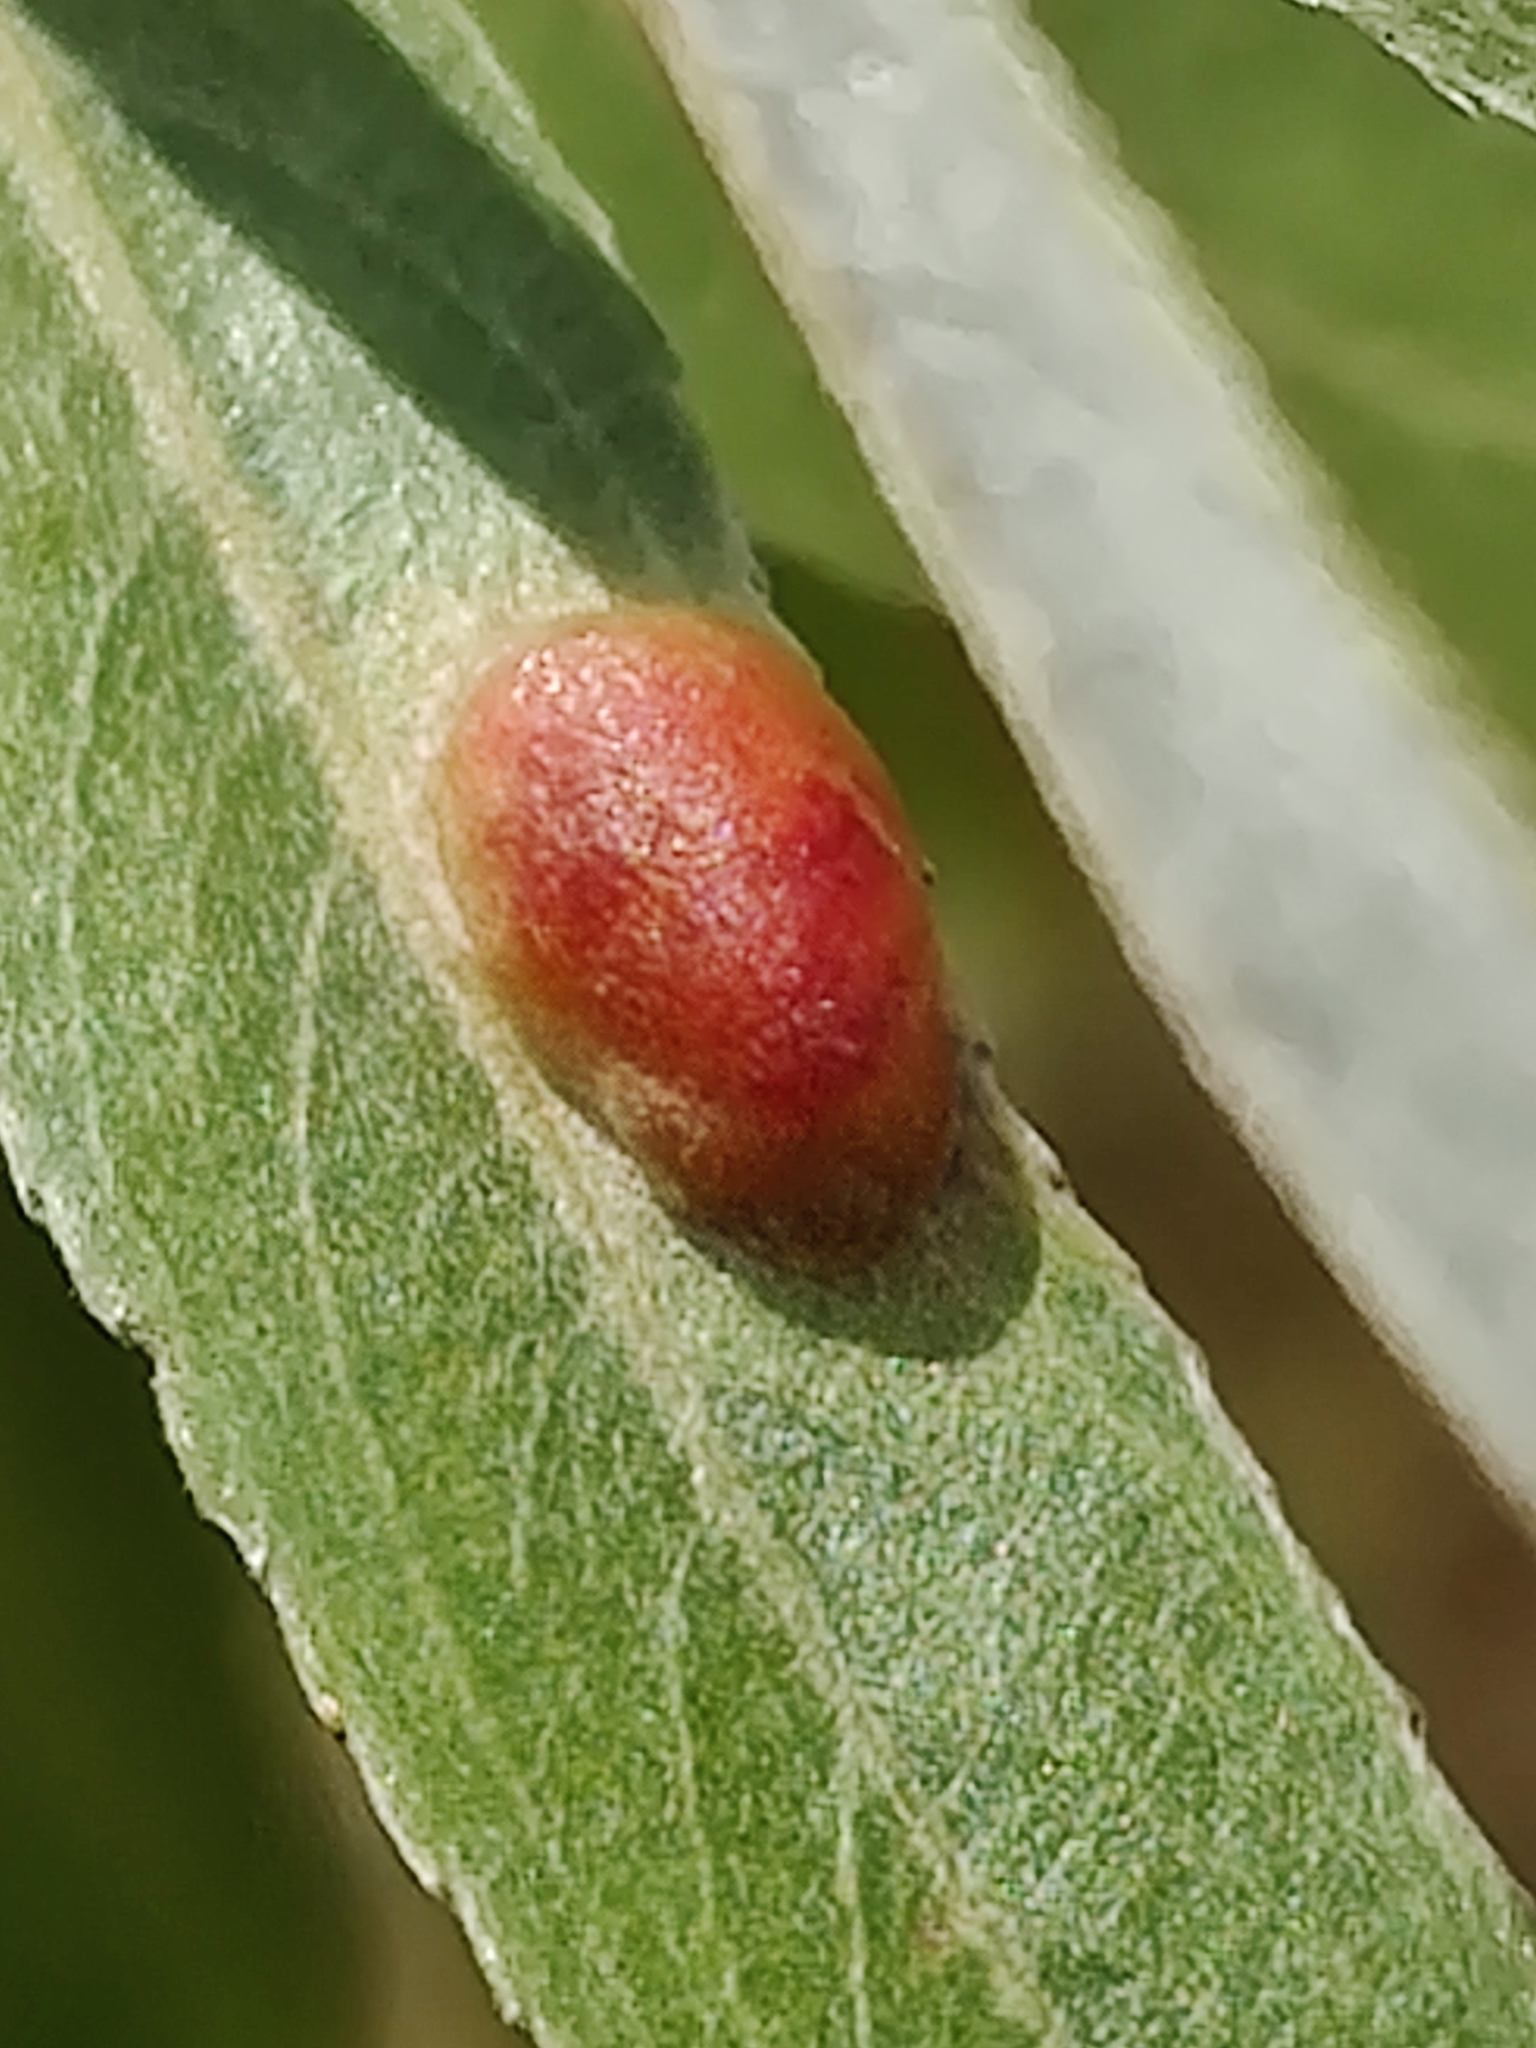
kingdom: Animalia
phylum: Arthropoda
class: Insecta
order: Hymenoptera
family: Tenthredinidae
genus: Pontania
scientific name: Pontania proxima
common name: Common sawfly
